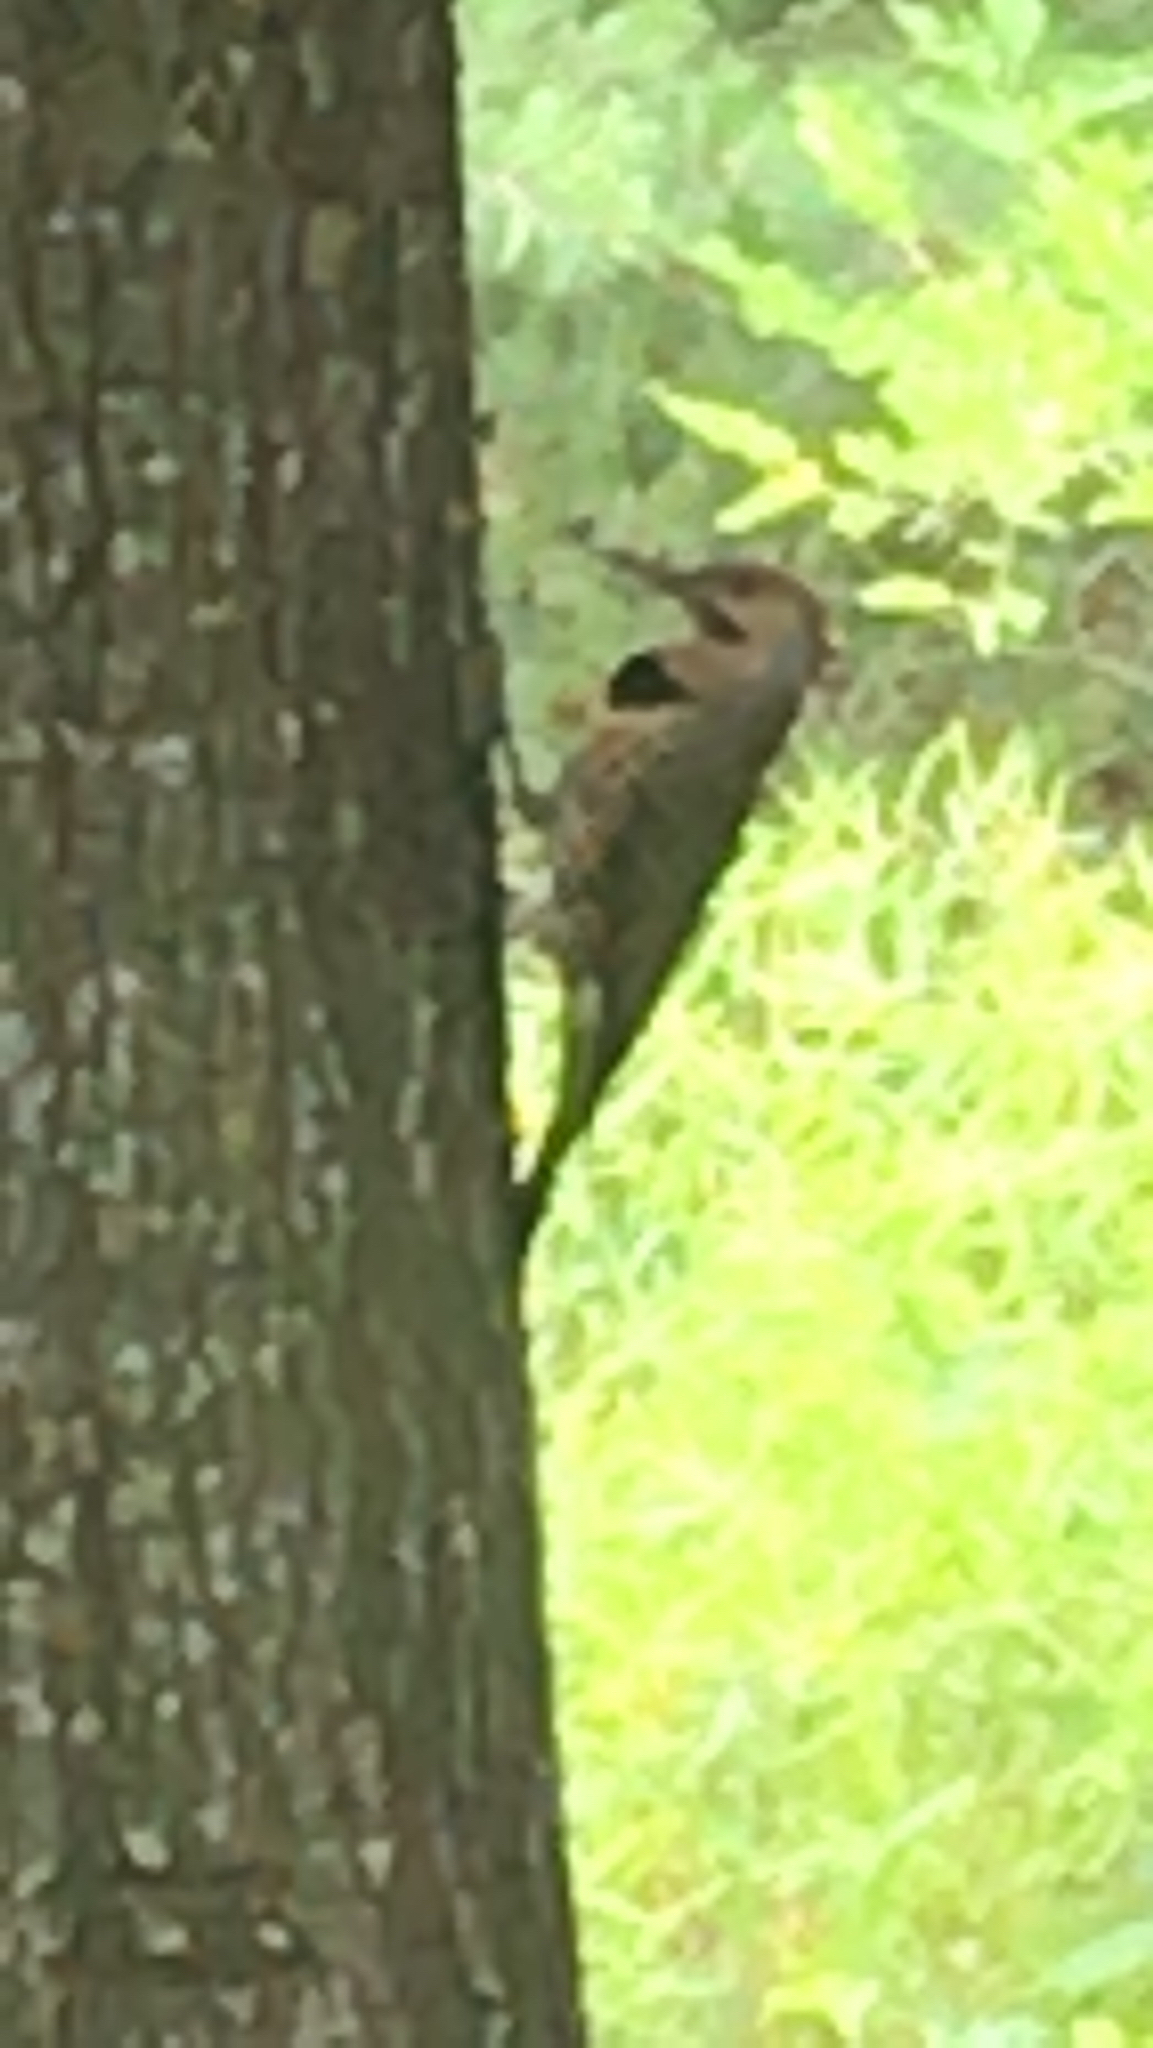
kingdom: Animalia
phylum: Chordata
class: Aves
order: Piciformes
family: Picidae
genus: Colaptes
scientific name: Colaptes auratus
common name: Northern flicker
